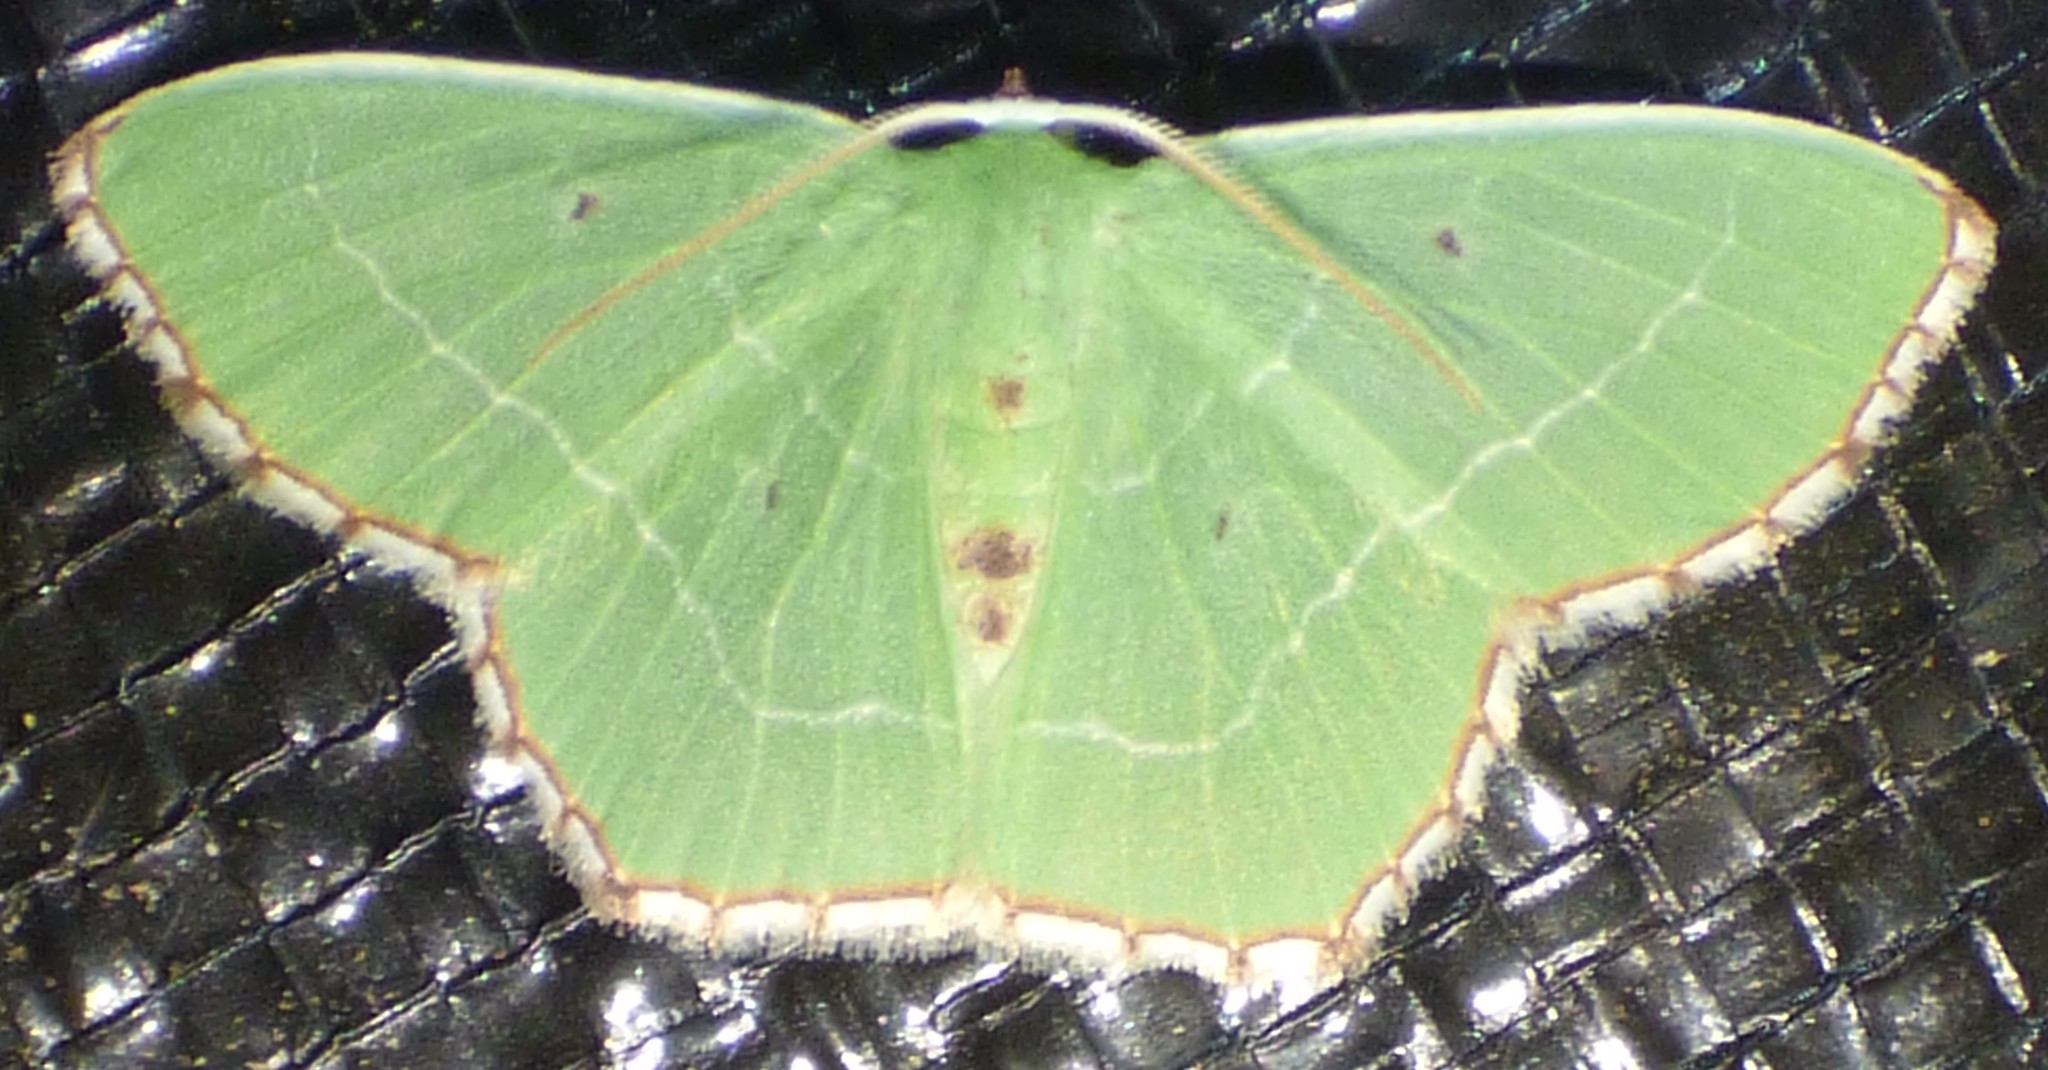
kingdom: Animalia
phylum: Arthropoda
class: Insecta
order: Lepidoptera
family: Geometridae
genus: Nemoria
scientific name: Nemoria saturiba
